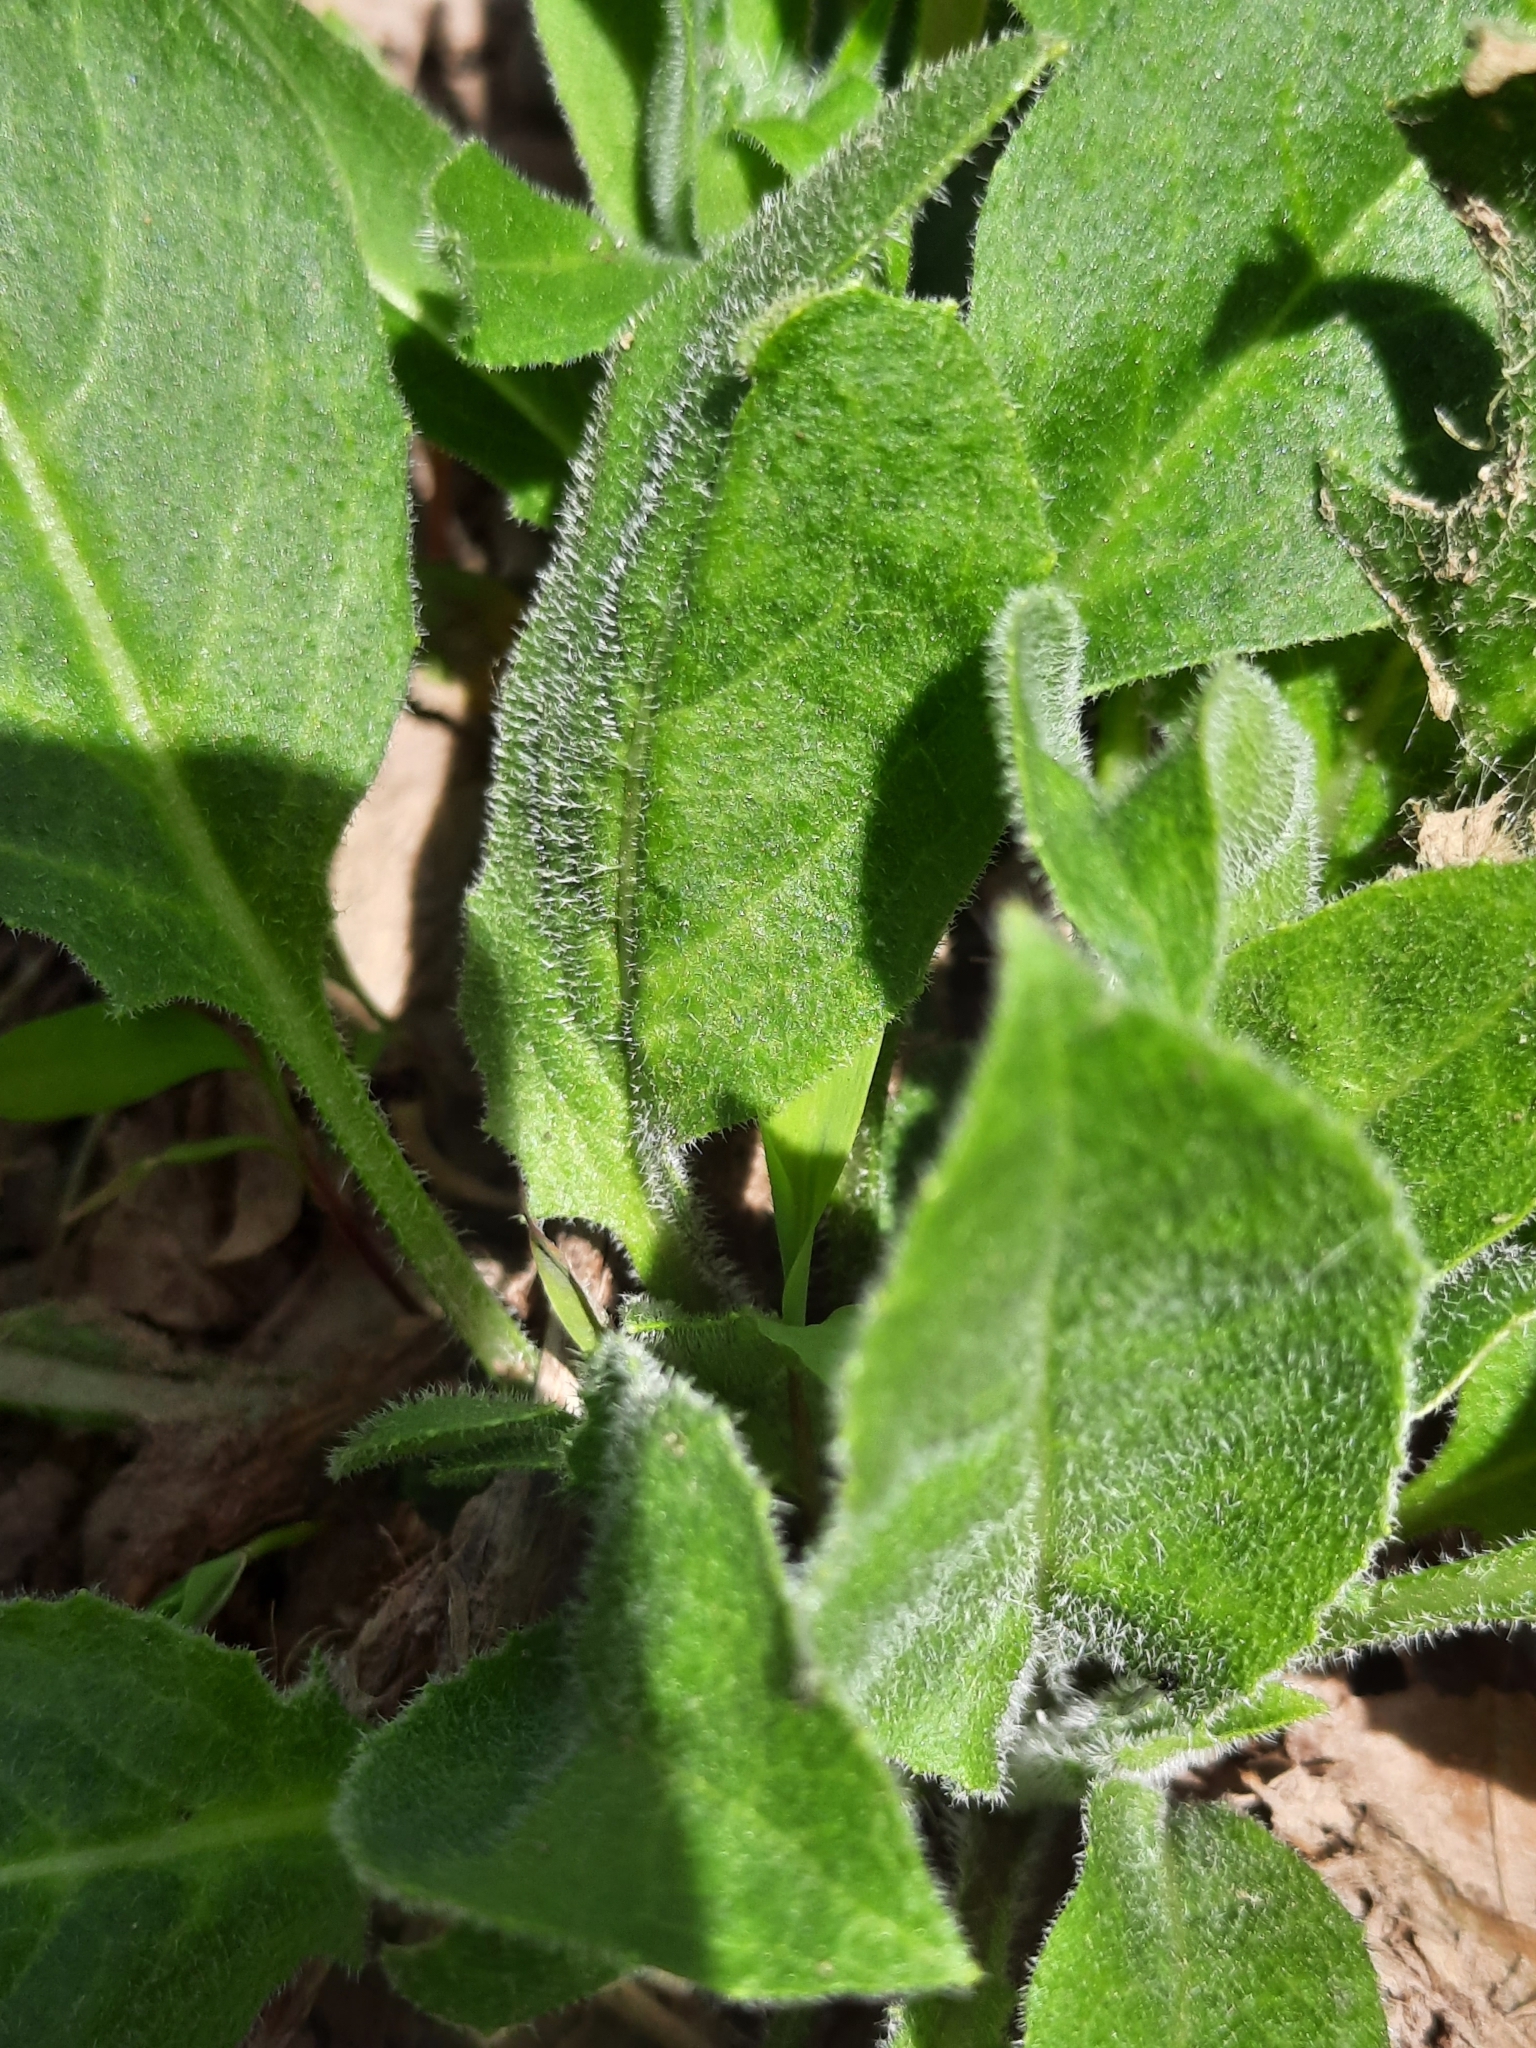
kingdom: Plantae
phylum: Tracheophyta
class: Magnoliopsida
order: Brassicales
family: Brassicaceae
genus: Hesperis
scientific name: Hesperis matronalis
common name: Dame's-violet
